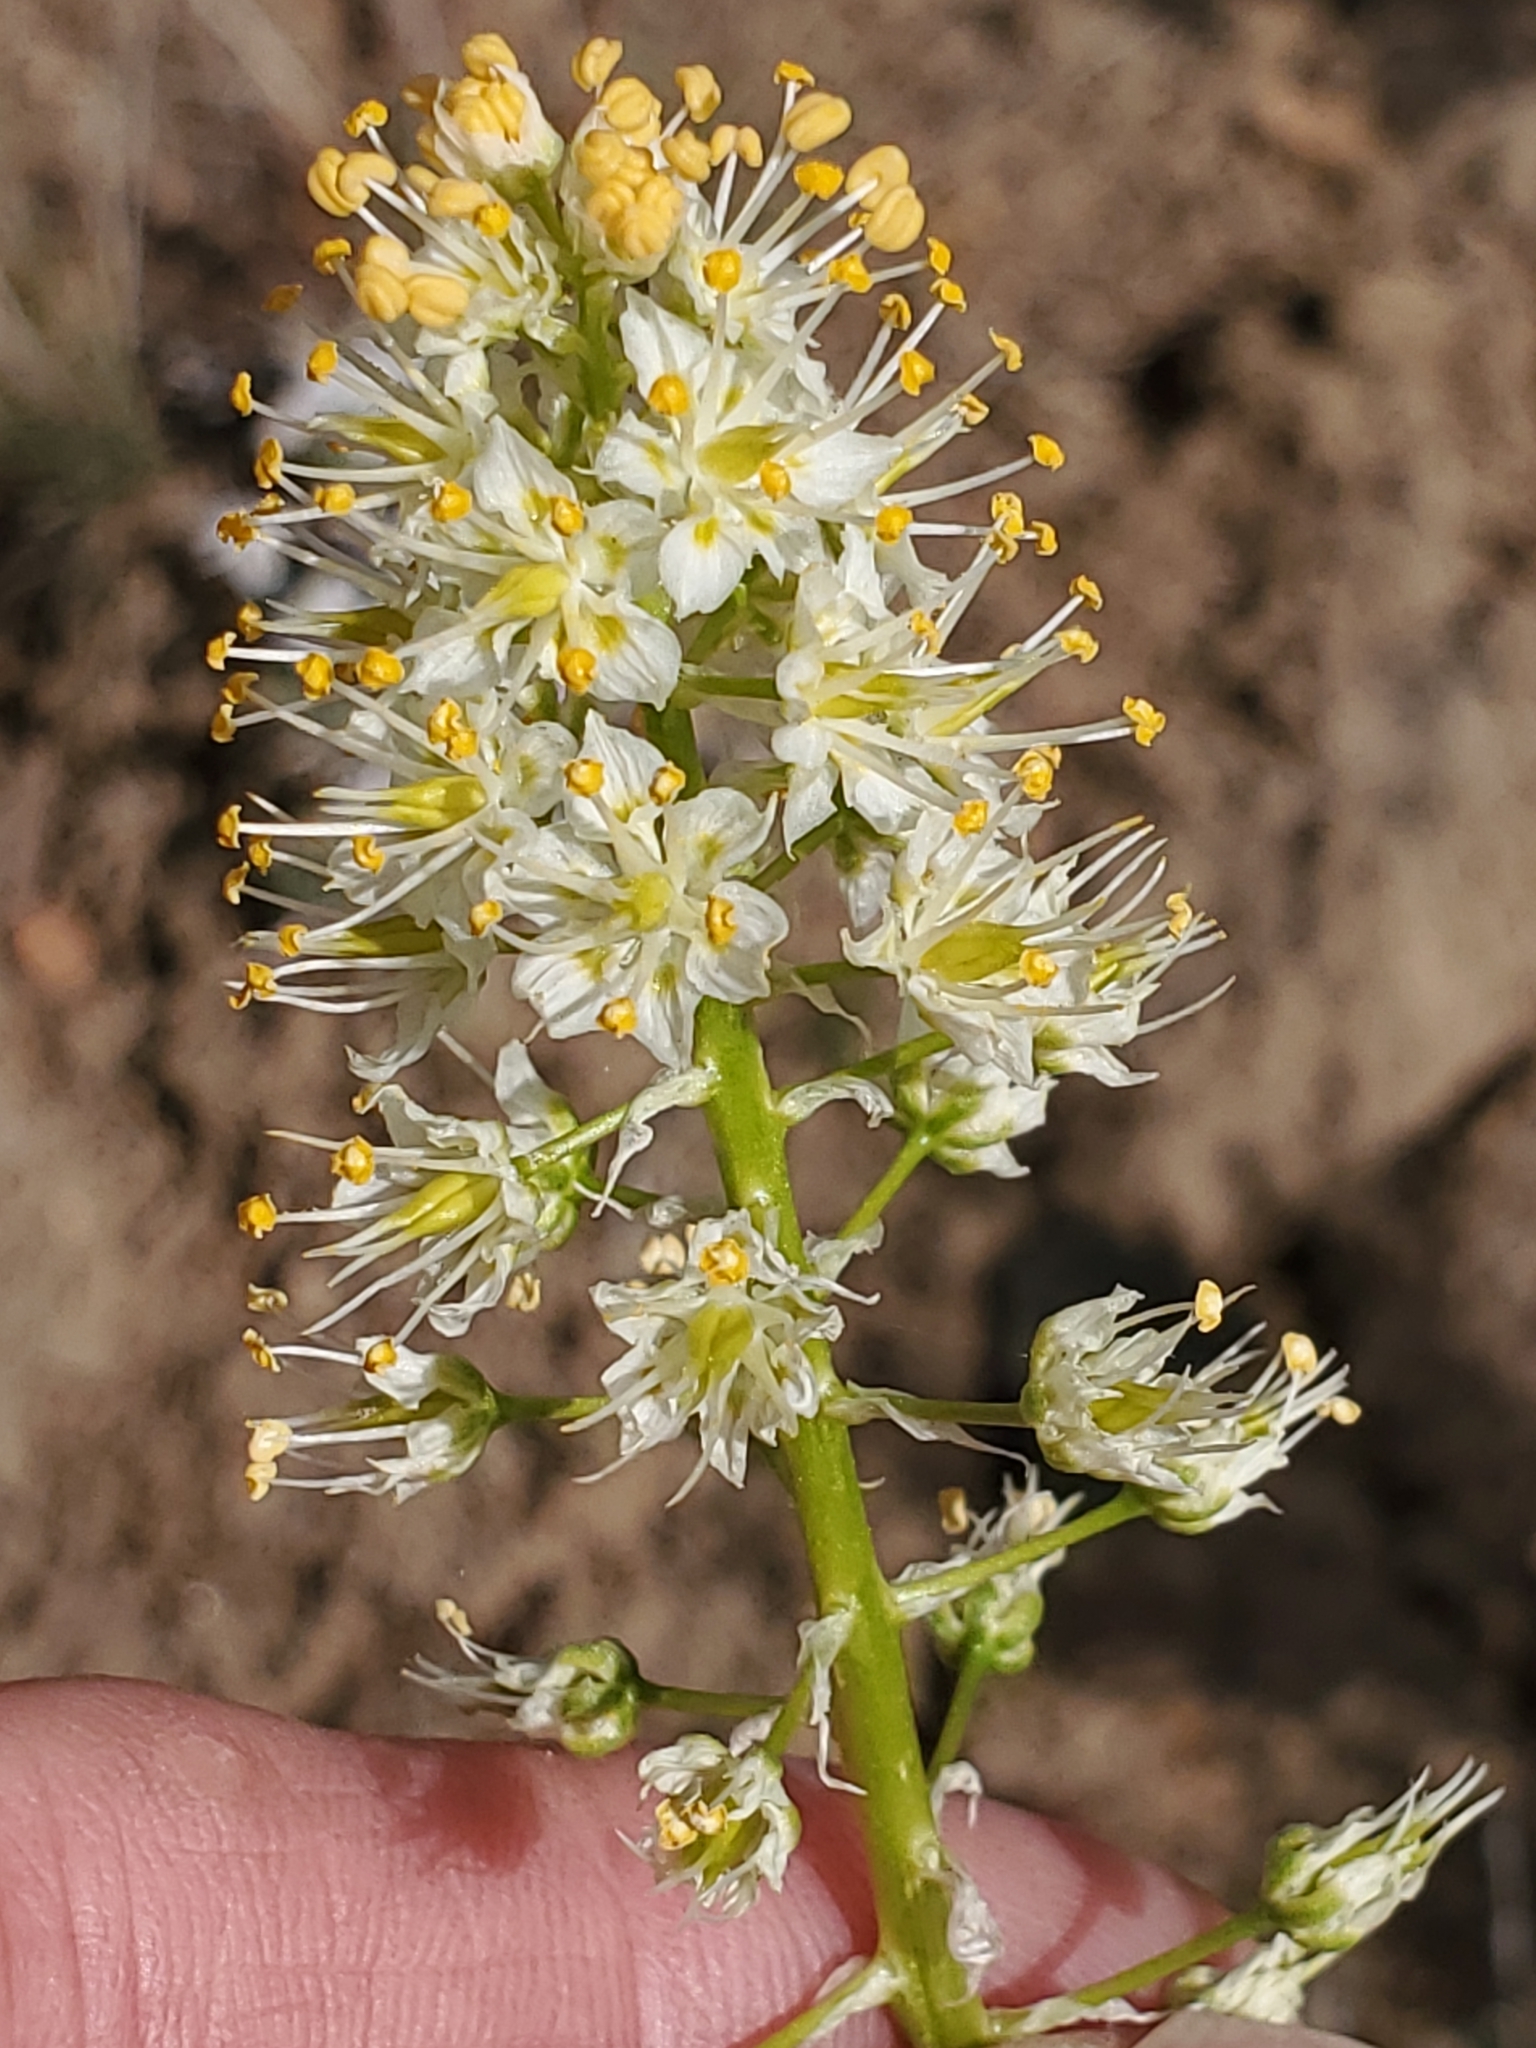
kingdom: Plantae
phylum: Tracheophyta
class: Liliopsida
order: Liliales
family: Melanthiaceae
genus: Toxicoscordion
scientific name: Toxicoscordion paniculatum
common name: Foothill death camas
